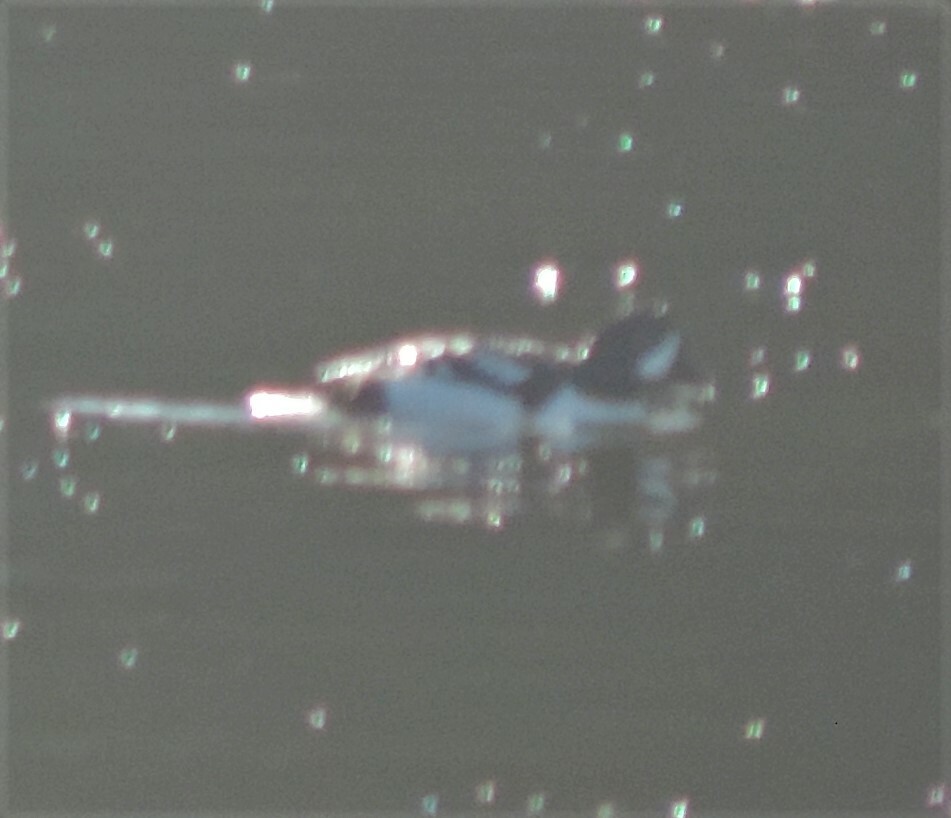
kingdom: Animalia
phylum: Chordata
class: Aves
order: Anseriformes
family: Anatidae
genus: Bucephala
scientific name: Bucephala islandica
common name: Barrow's goldeneye
